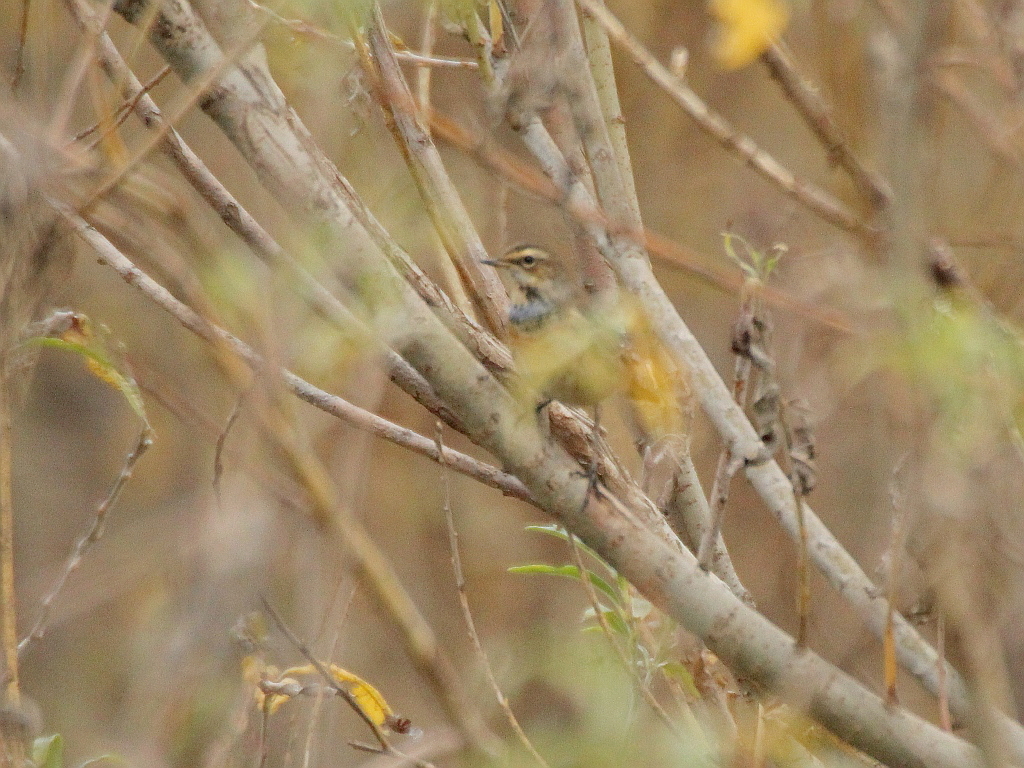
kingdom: Animalia
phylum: Chordata
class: Aves
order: Passeriformes
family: Muscicapidae
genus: Luscinia
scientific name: Luscinia svecica
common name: Bluethroat
